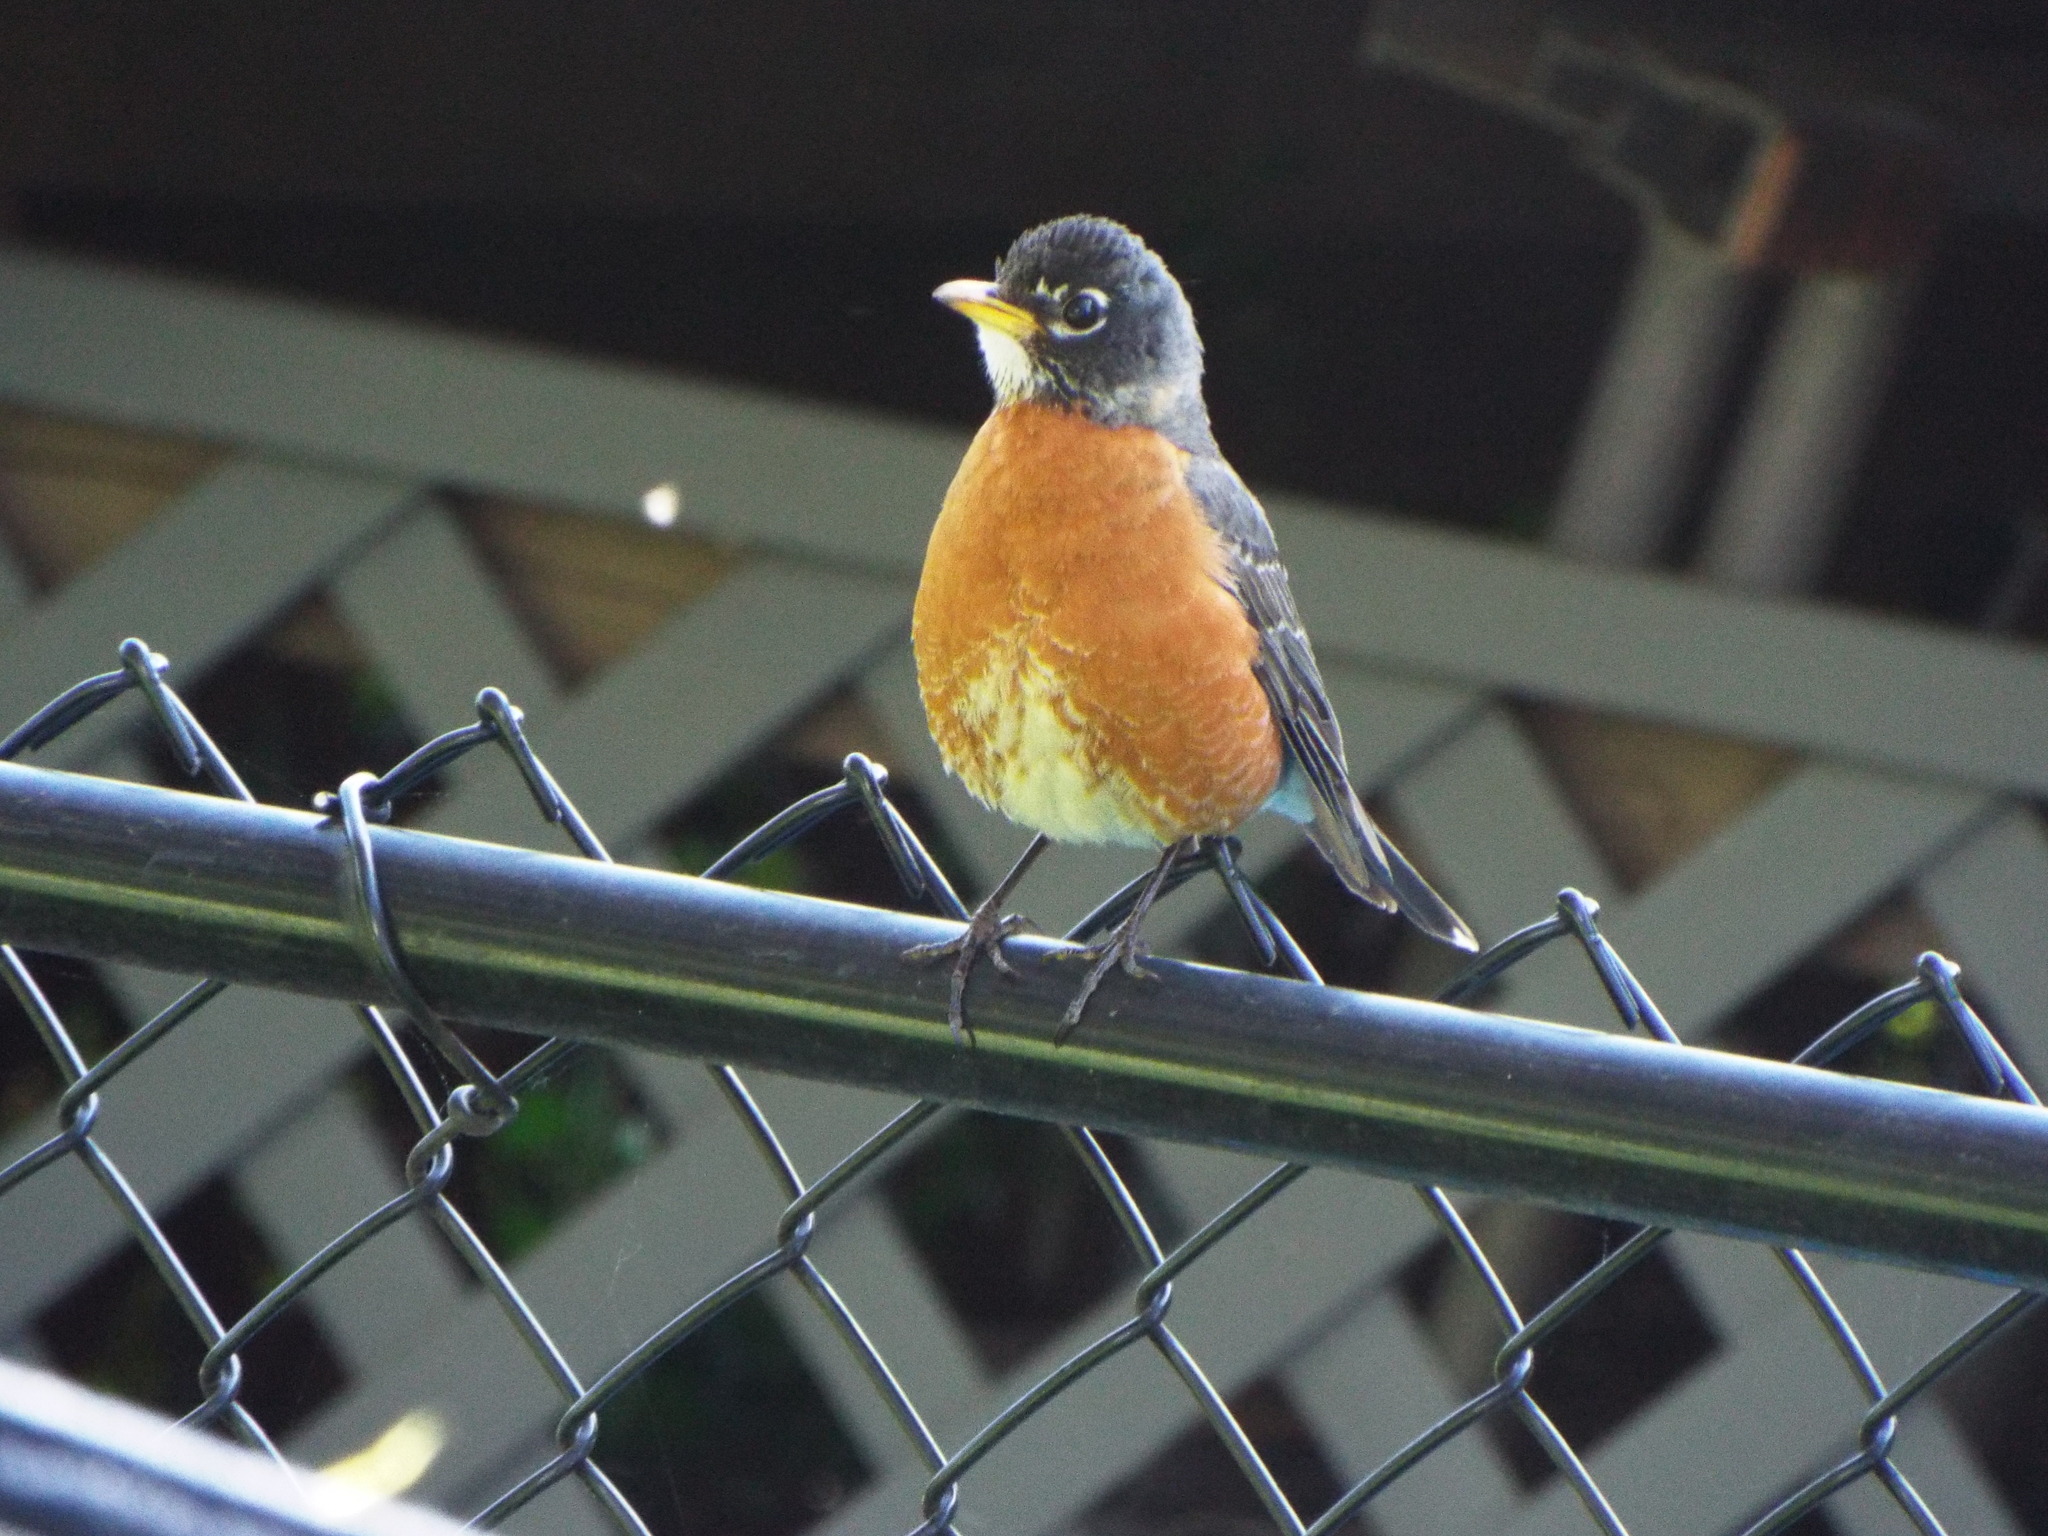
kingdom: Animalia
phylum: Chordata
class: Aves
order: Passeriformes
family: Turdidae
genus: Turdus
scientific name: Turdus migratorius
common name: American robin
